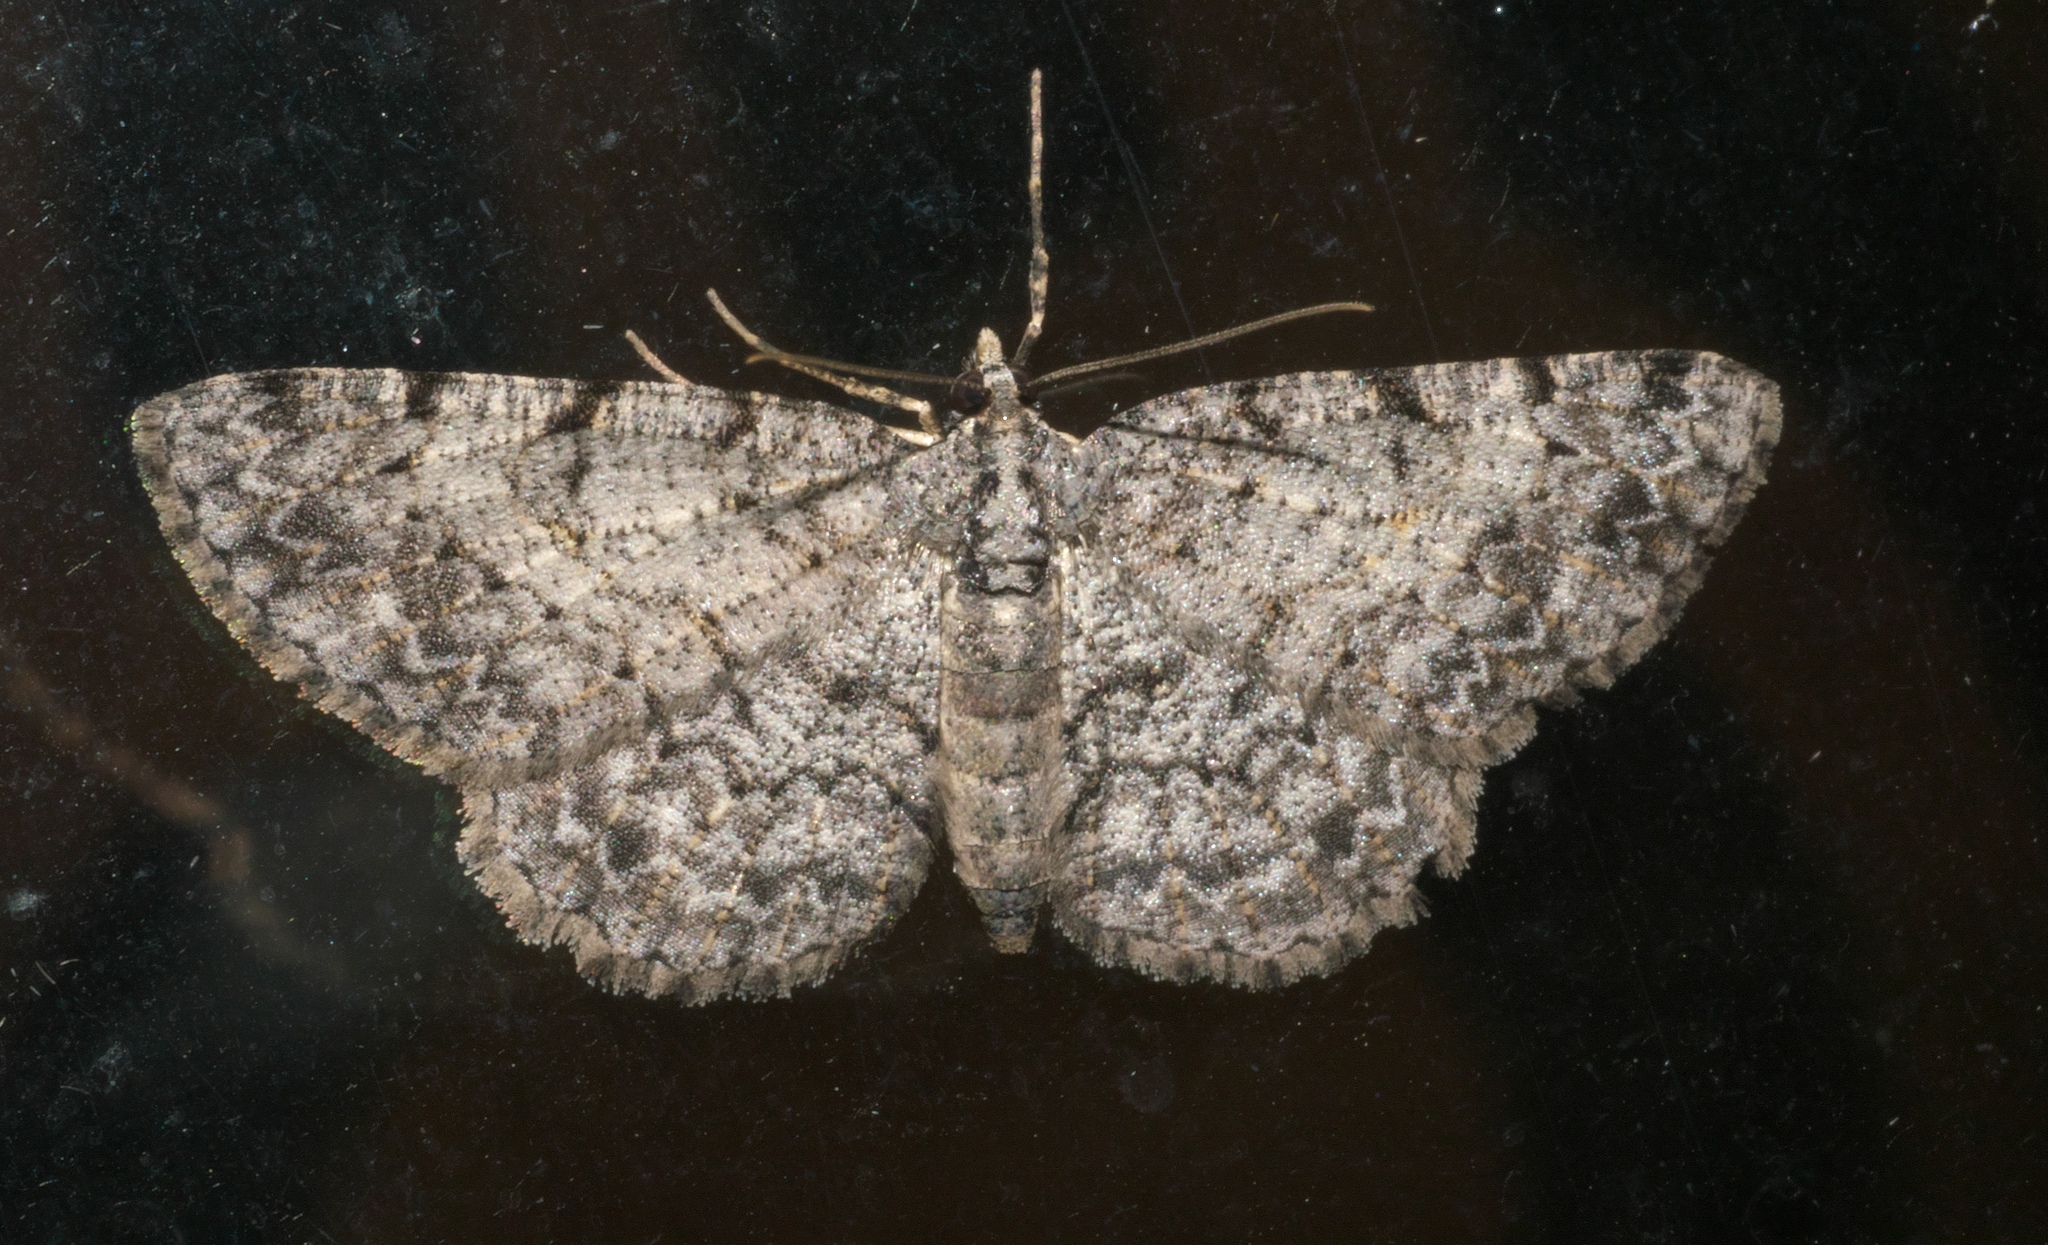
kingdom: Animalia
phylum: Arthropoda
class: Insecta
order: Lepidoptera
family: Geometridae
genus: Protoboarmia
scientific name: Protoboarmia porcelaria
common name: Porcelain gray
